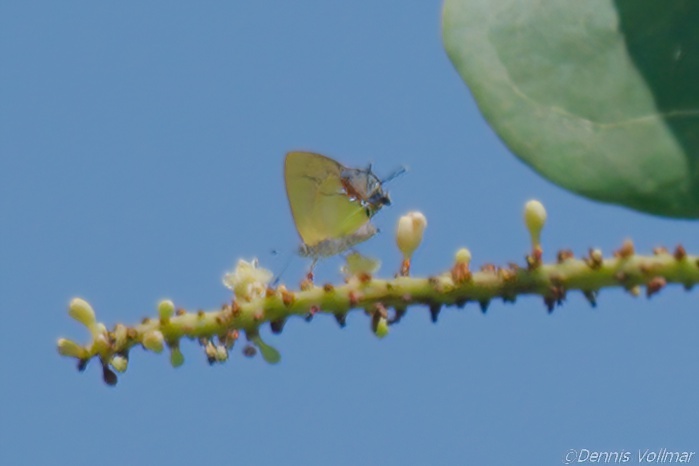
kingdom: Animalia
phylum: Arthropoda
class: Insecta
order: Lepidoptera
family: Lycaenidae
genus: Thecla
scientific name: Thecla maesites
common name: Verde azul hairstreak
